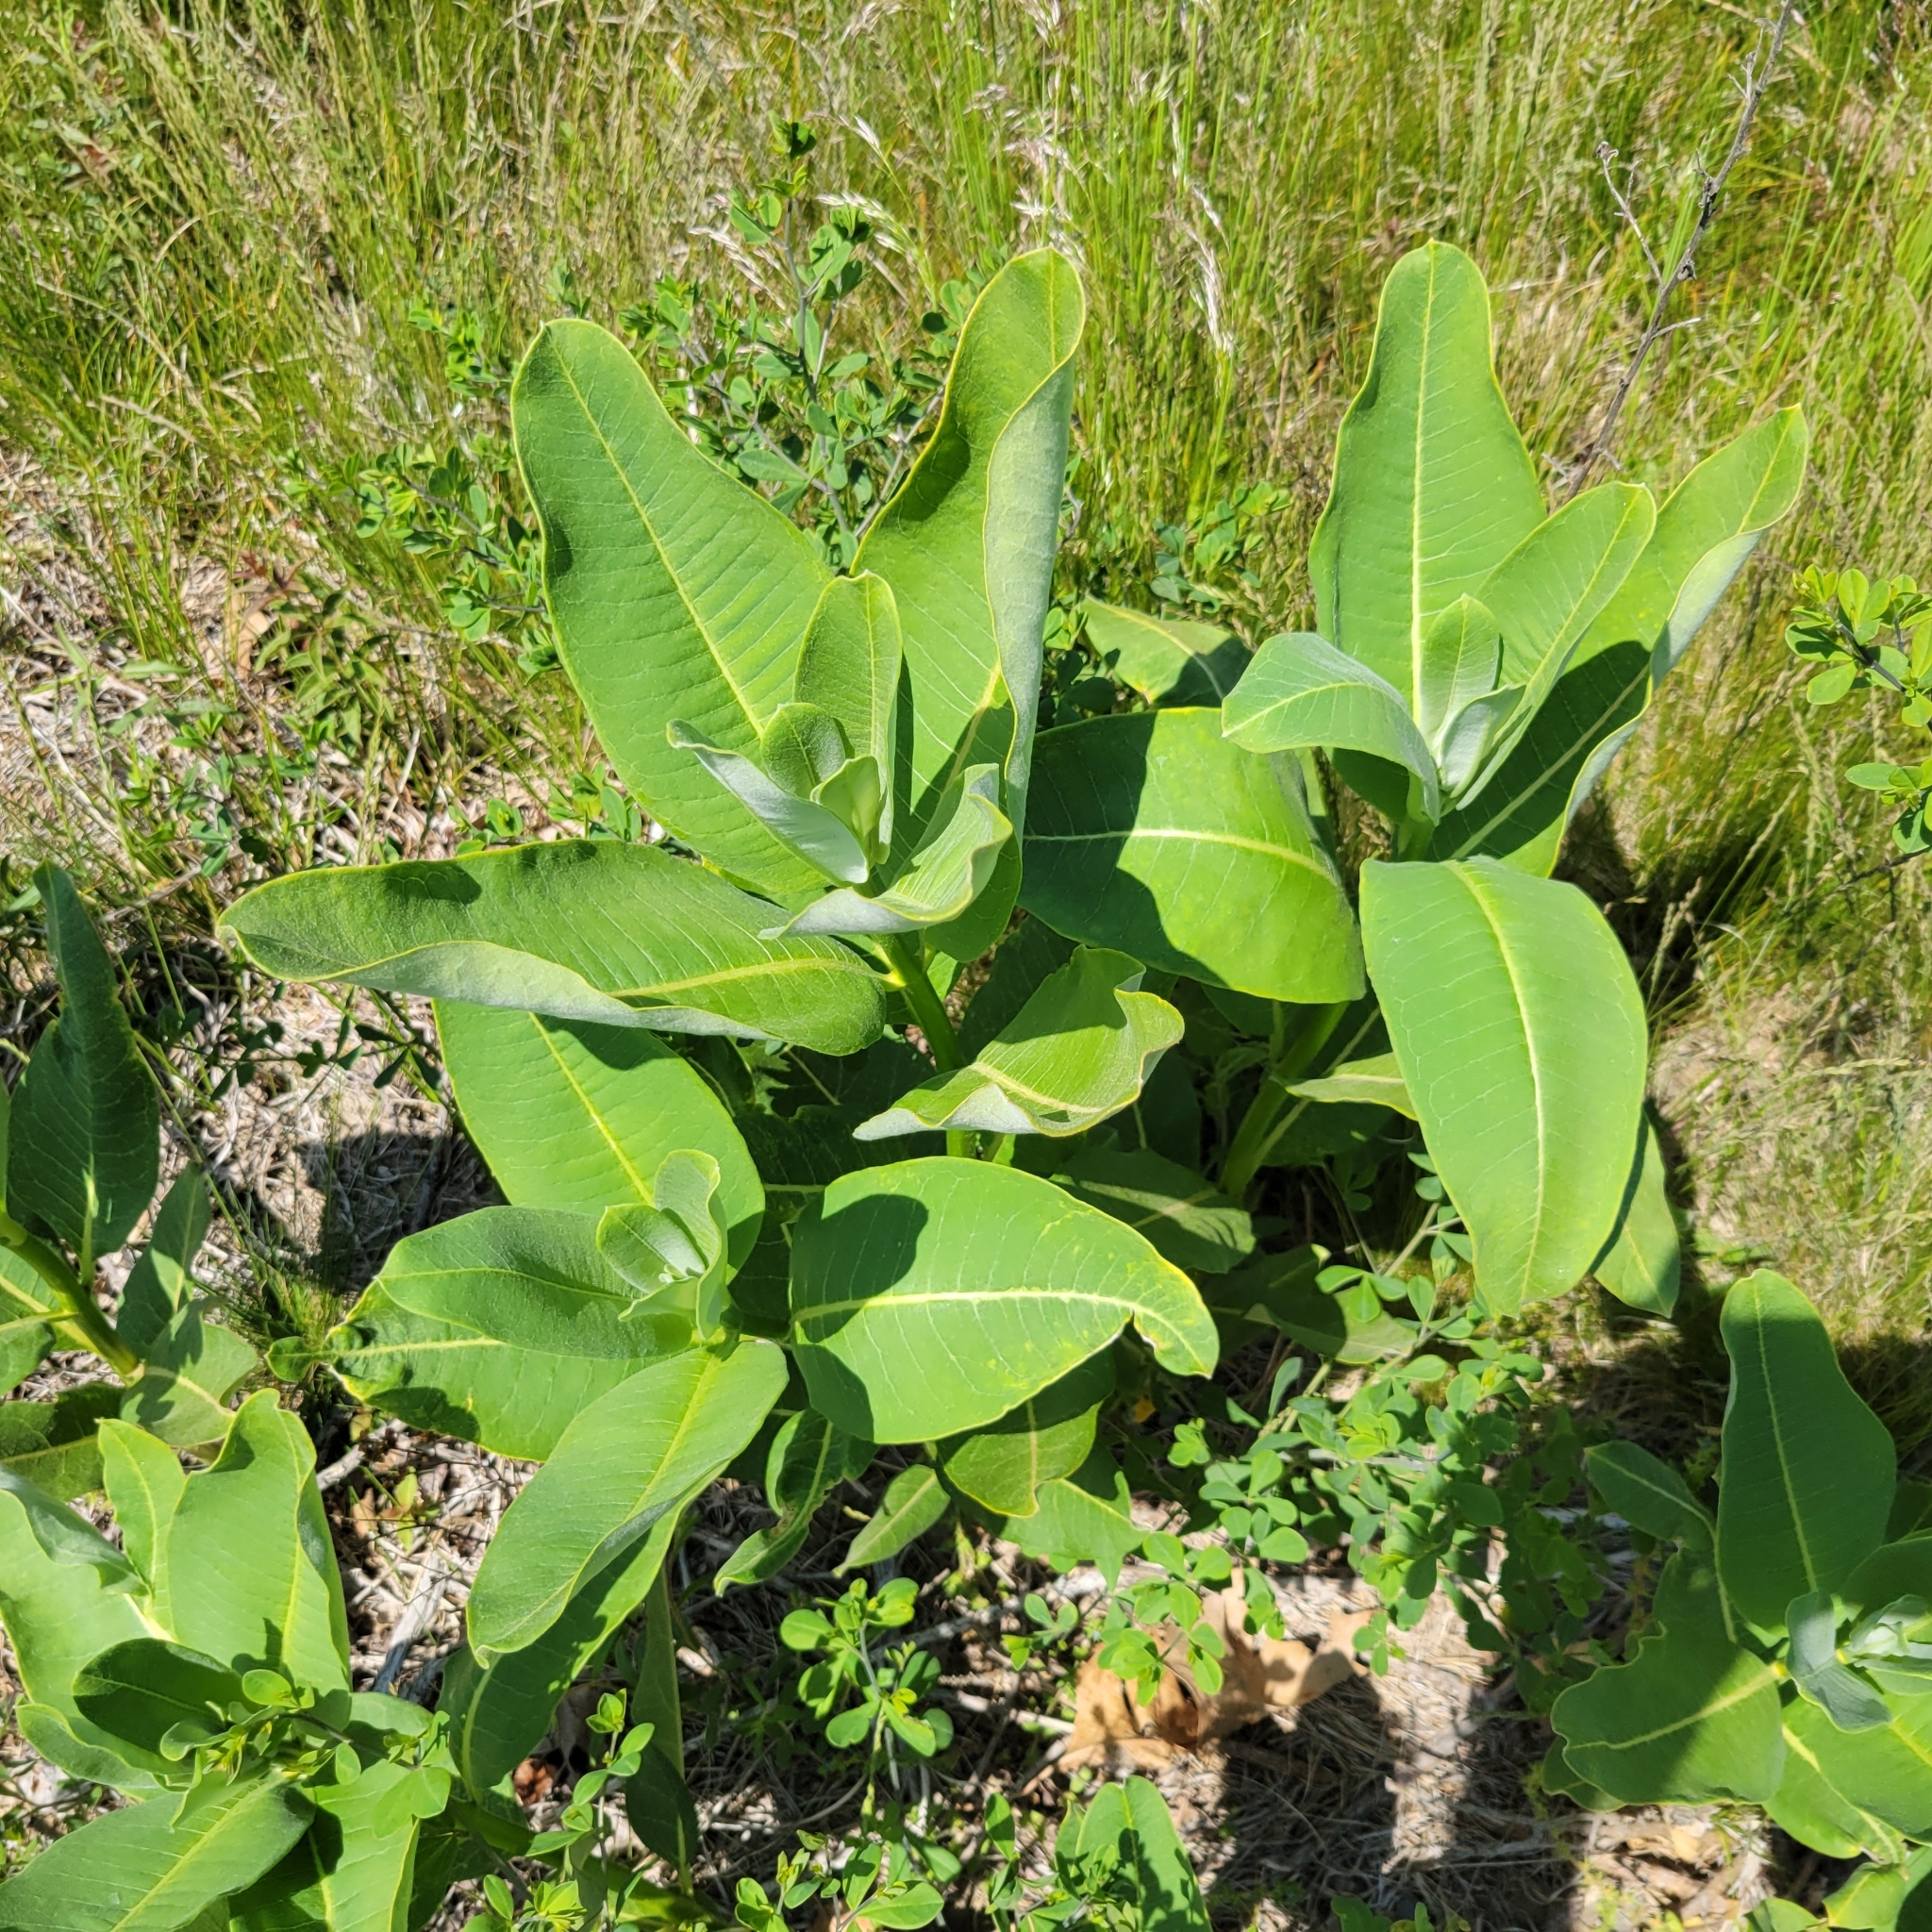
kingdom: Plantae
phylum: Tracheophyta
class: Magnoliopsida
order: Gentianales
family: Apocynaceae
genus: Asclepias
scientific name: Asclepias syriaca
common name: Common milkweed
